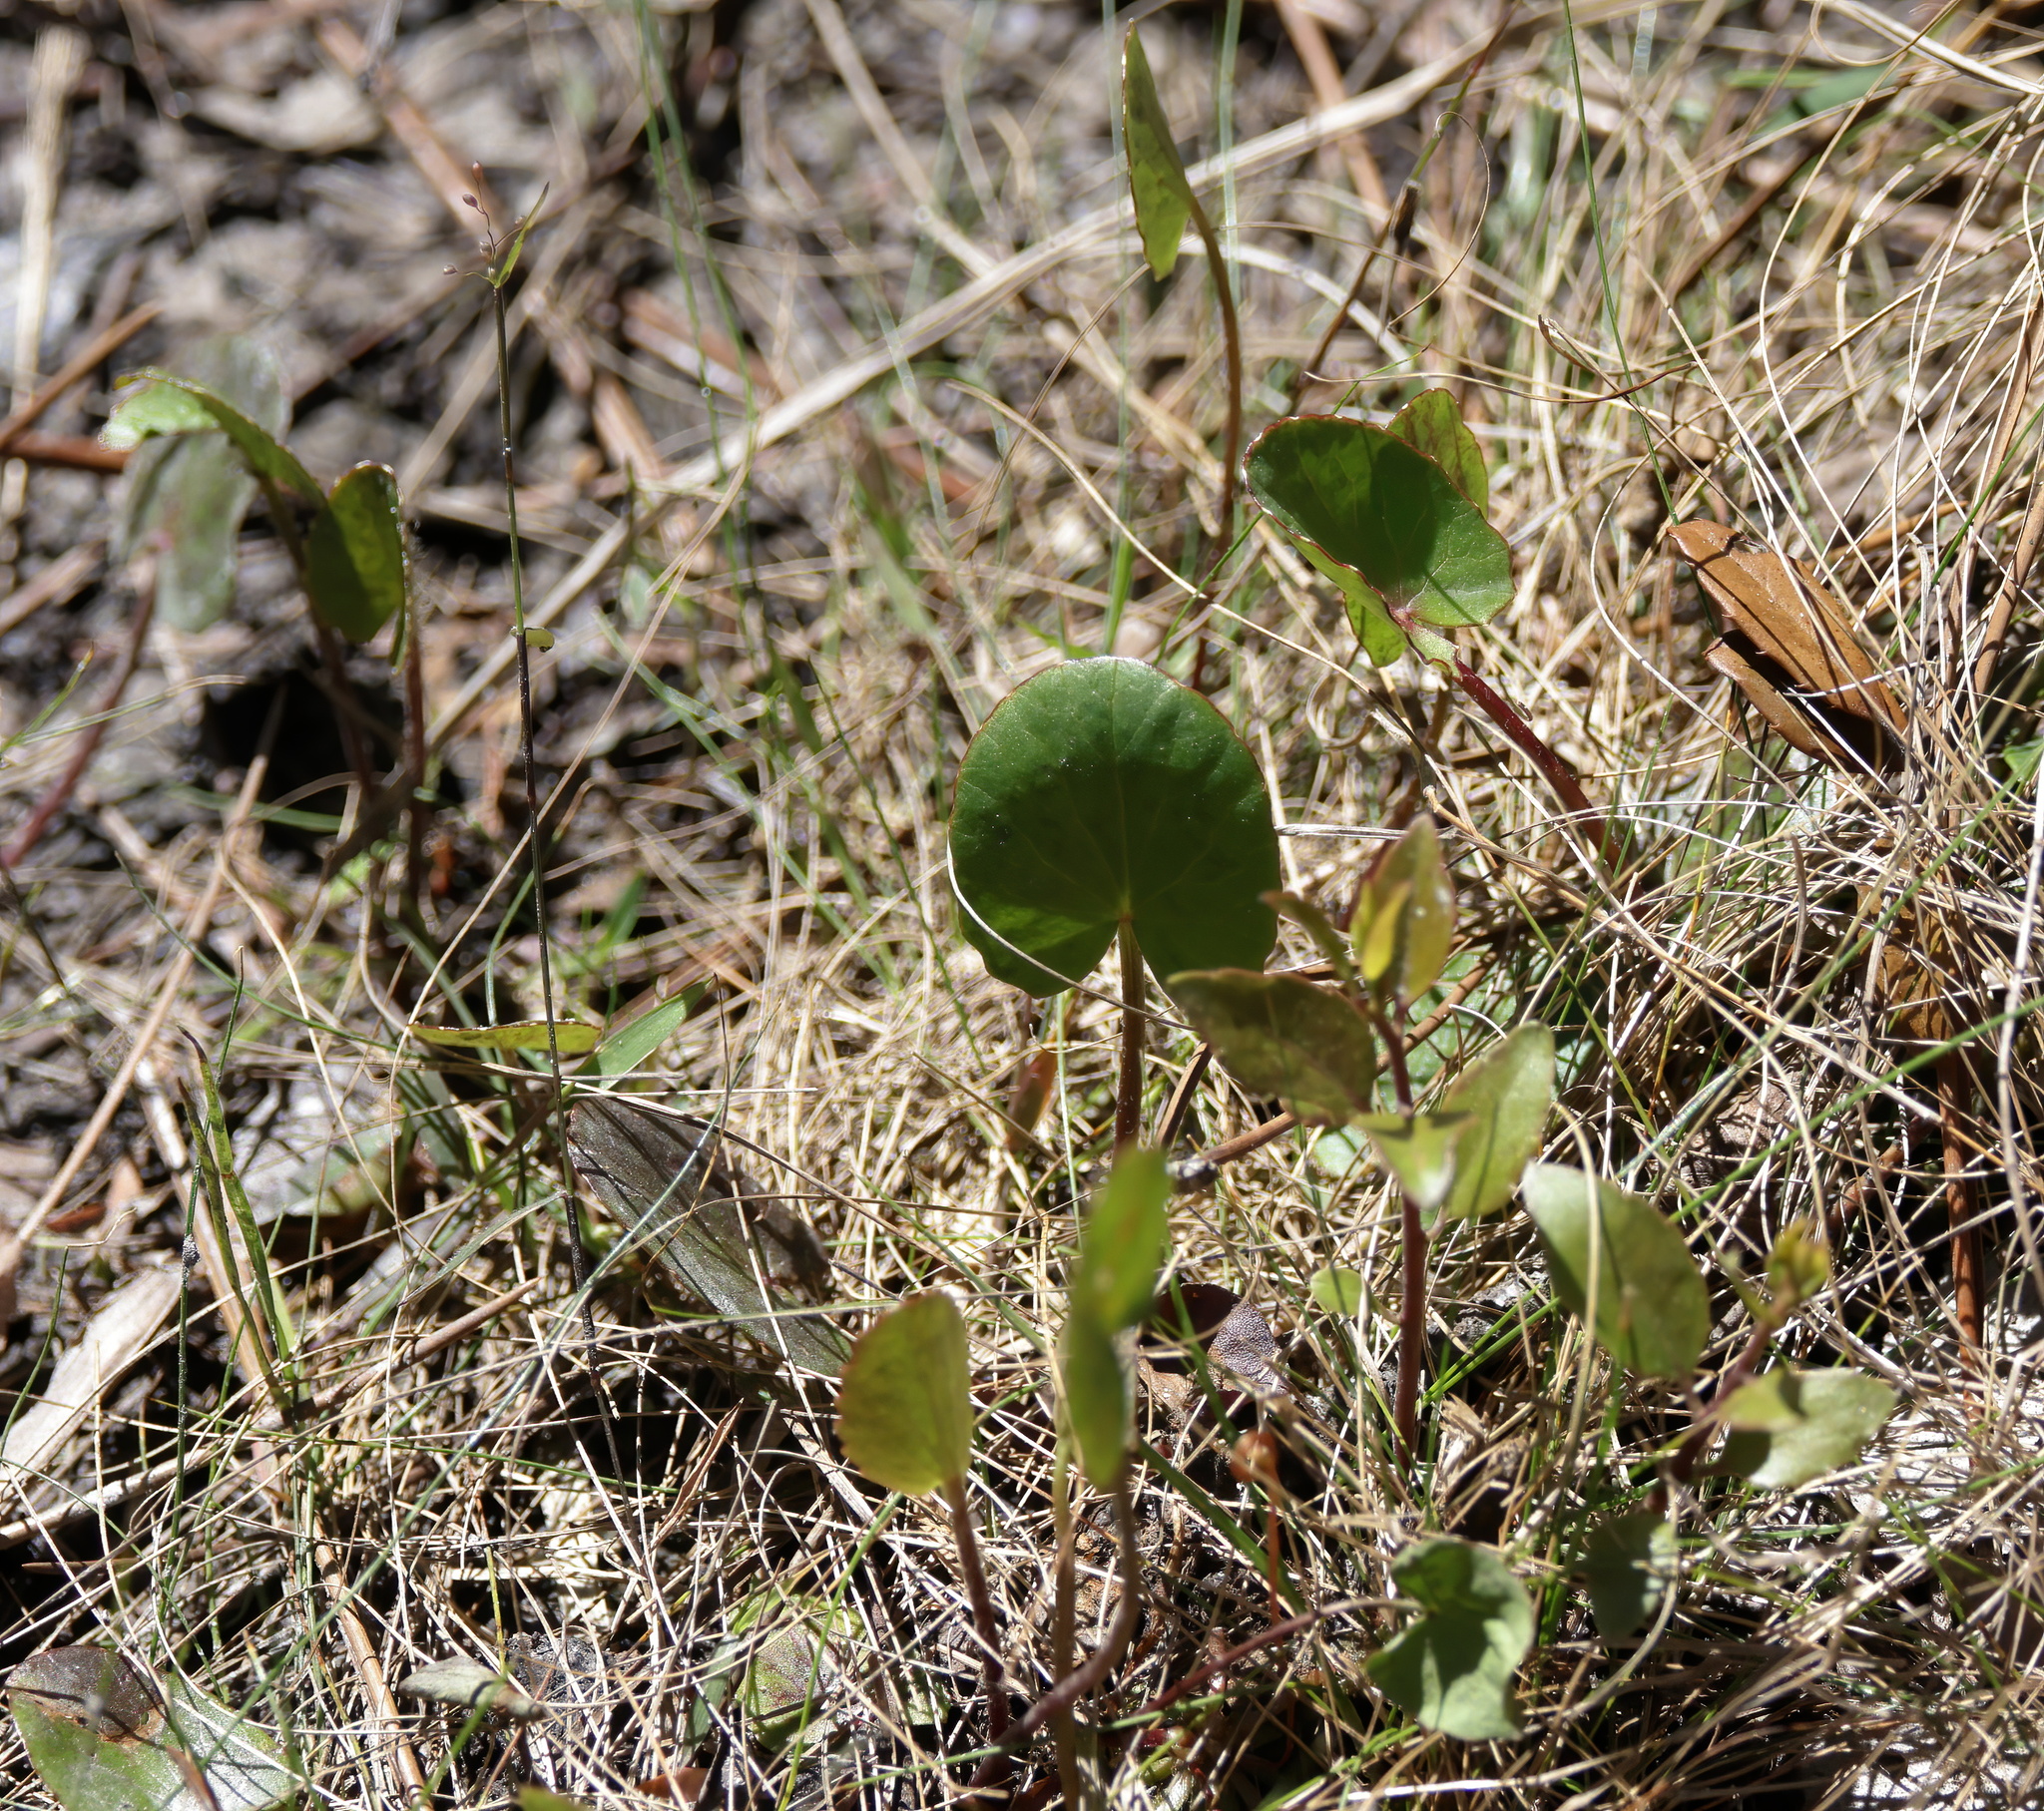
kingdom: Plantae
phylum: Tracheophyta
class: Magnoliopsida
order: Apiales
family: Apiaceae
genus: Centella
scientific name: Centella erecta
